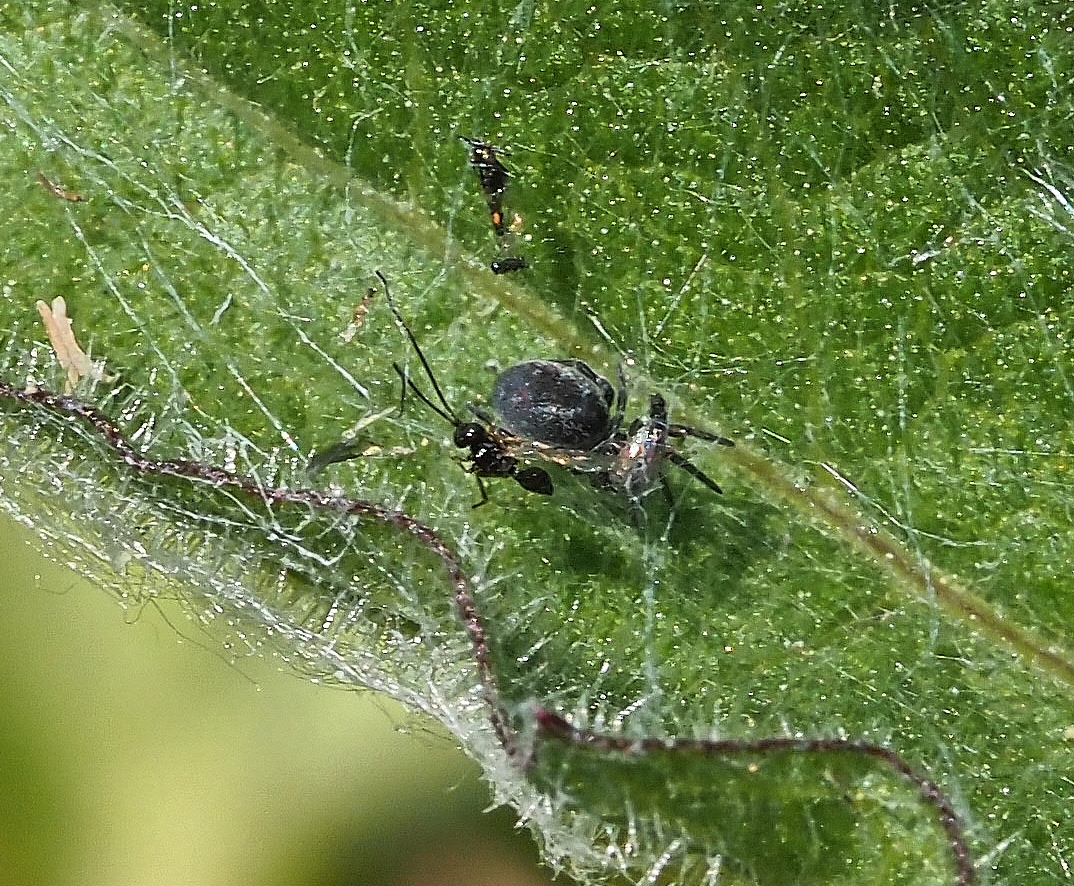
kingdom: Animalia
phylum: Arthropoda
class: Arachnida
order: Araneae
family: Dictynidae
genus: Brigittea
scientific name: Brigittea latens
